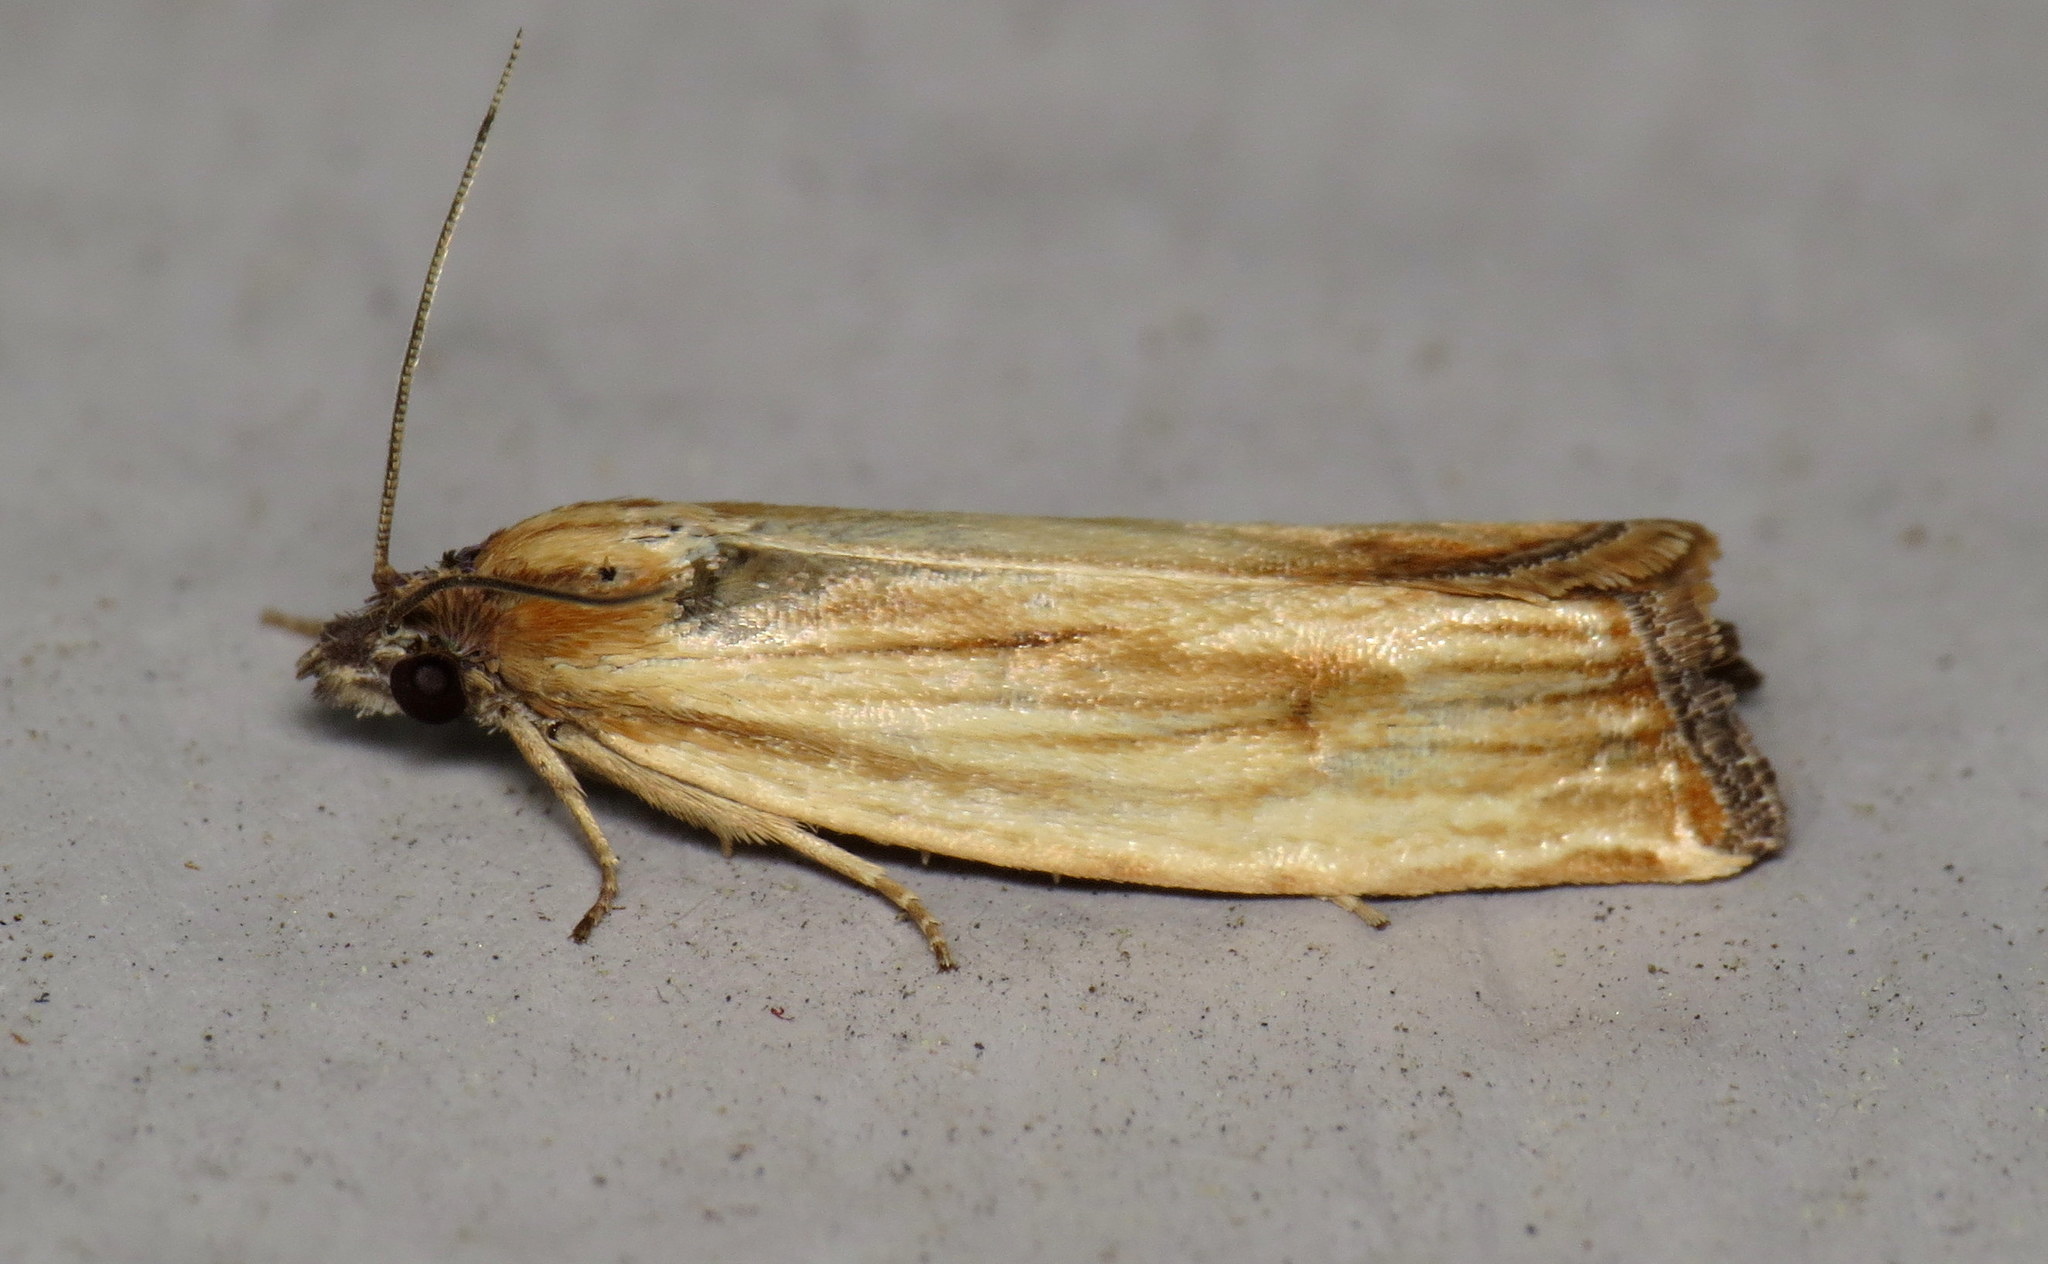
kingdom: Animalia
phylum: Arthropoda
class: Insecta
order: Lepidoptera
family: Tortricidae
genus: Eucosma
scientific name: Eucosma radiatana
